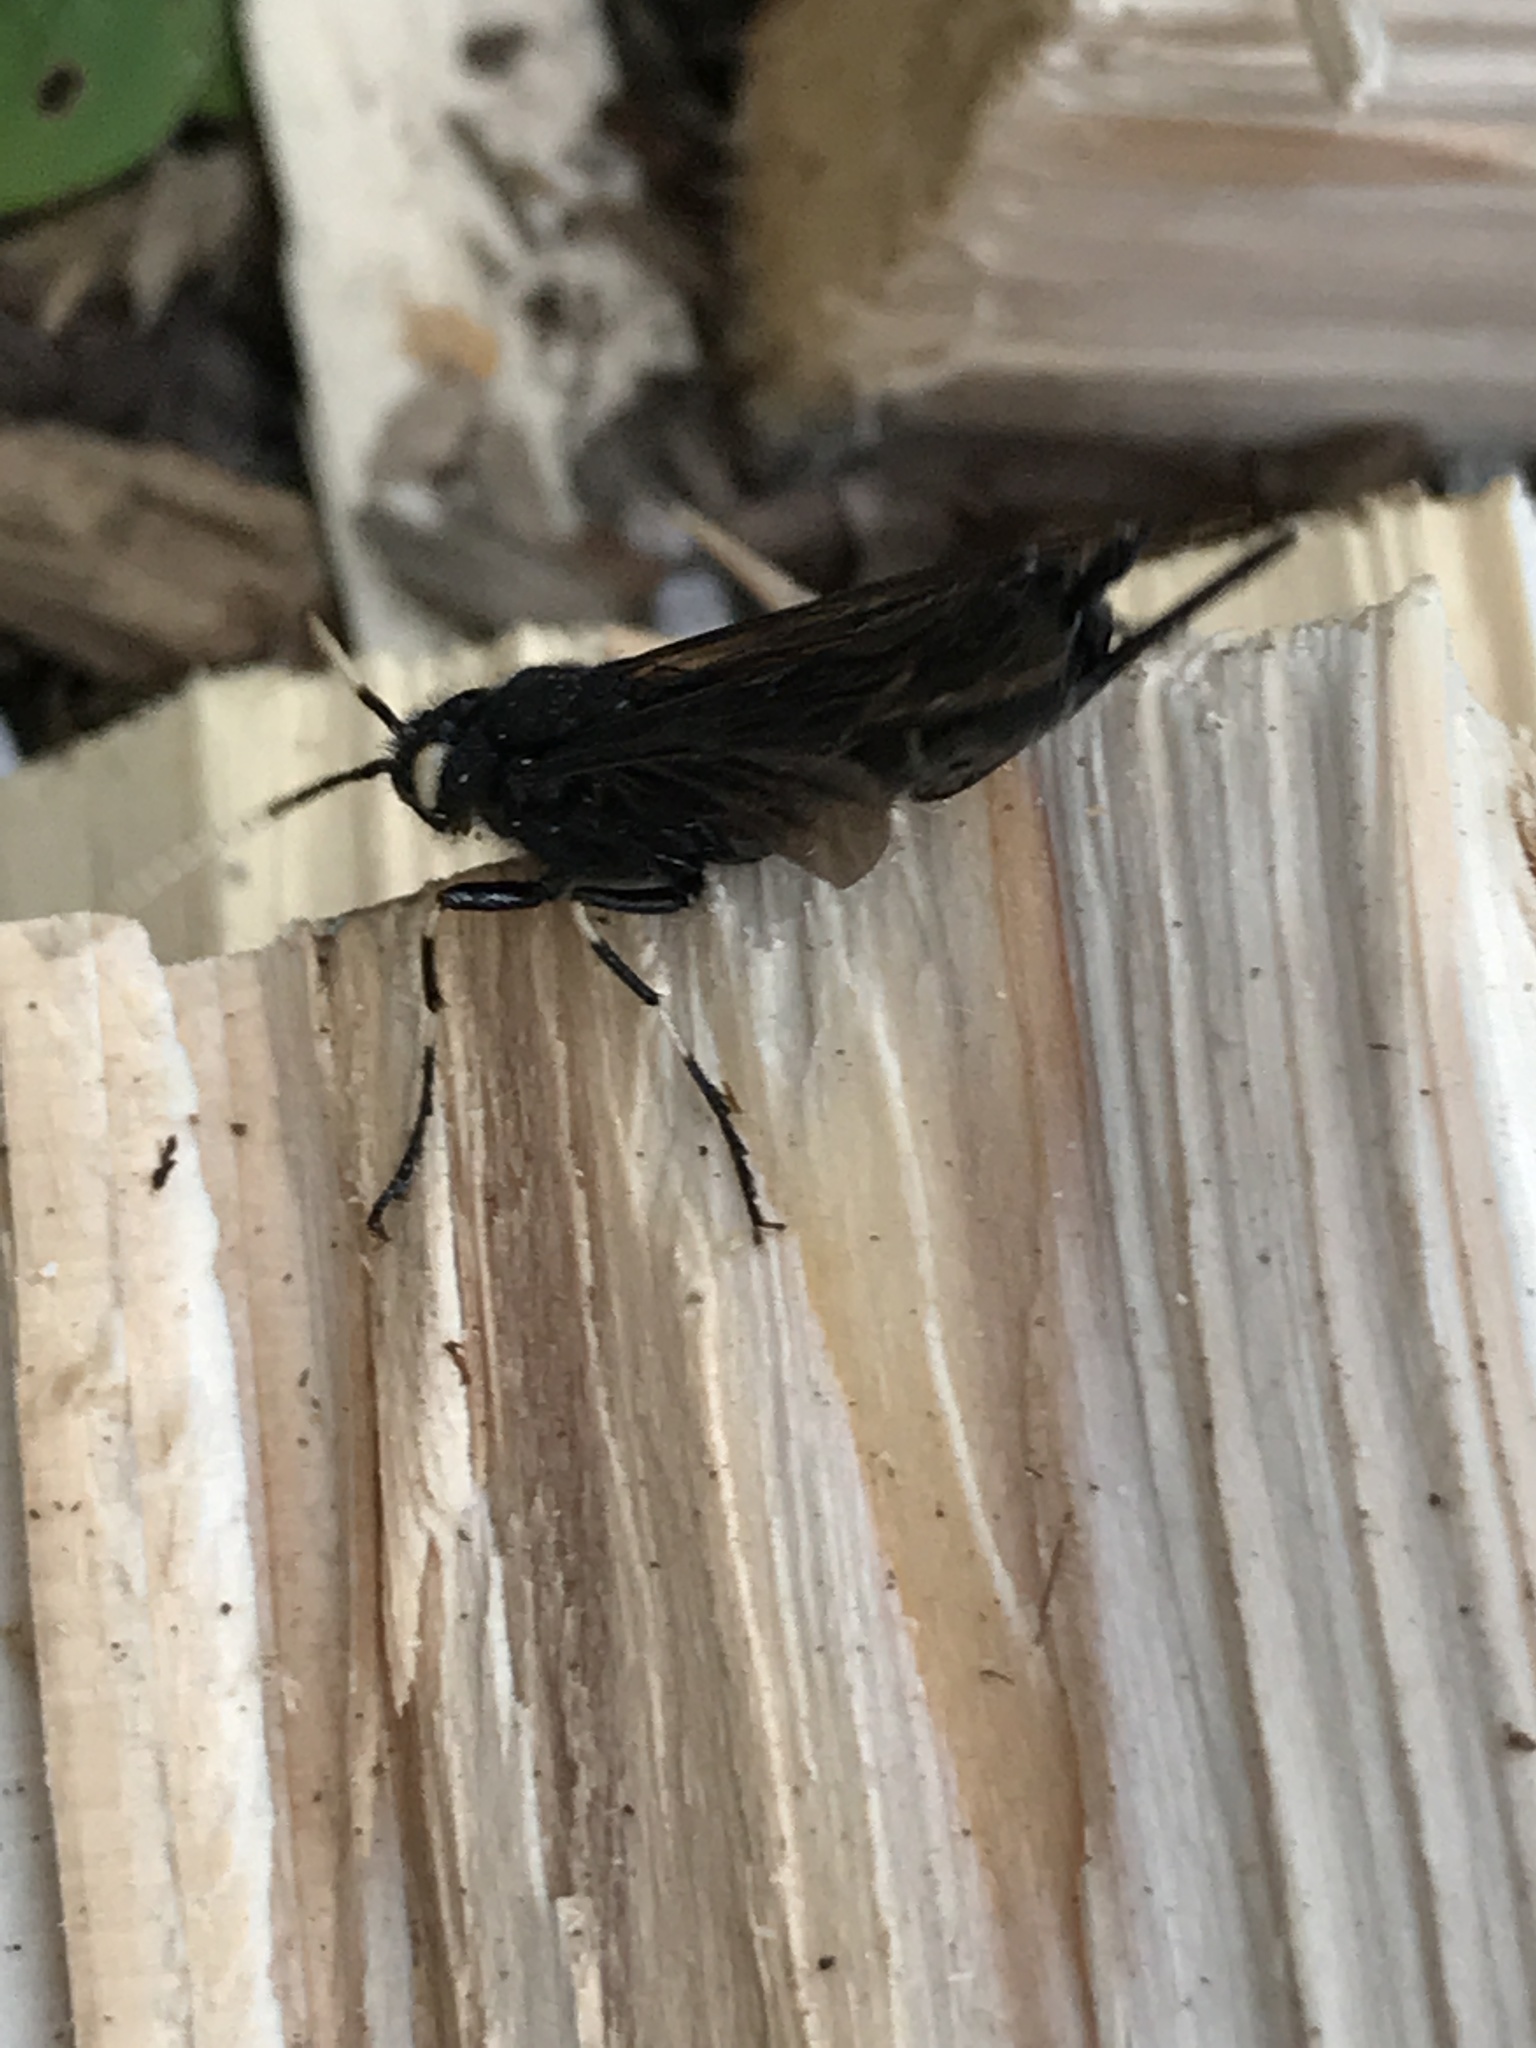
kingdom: Animalia
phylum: Arthropoda
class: Insecta
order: Hymenoptera
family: Siricidae
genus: Urocerus
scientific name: Urocerus albicornis
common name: White-horned horntail
